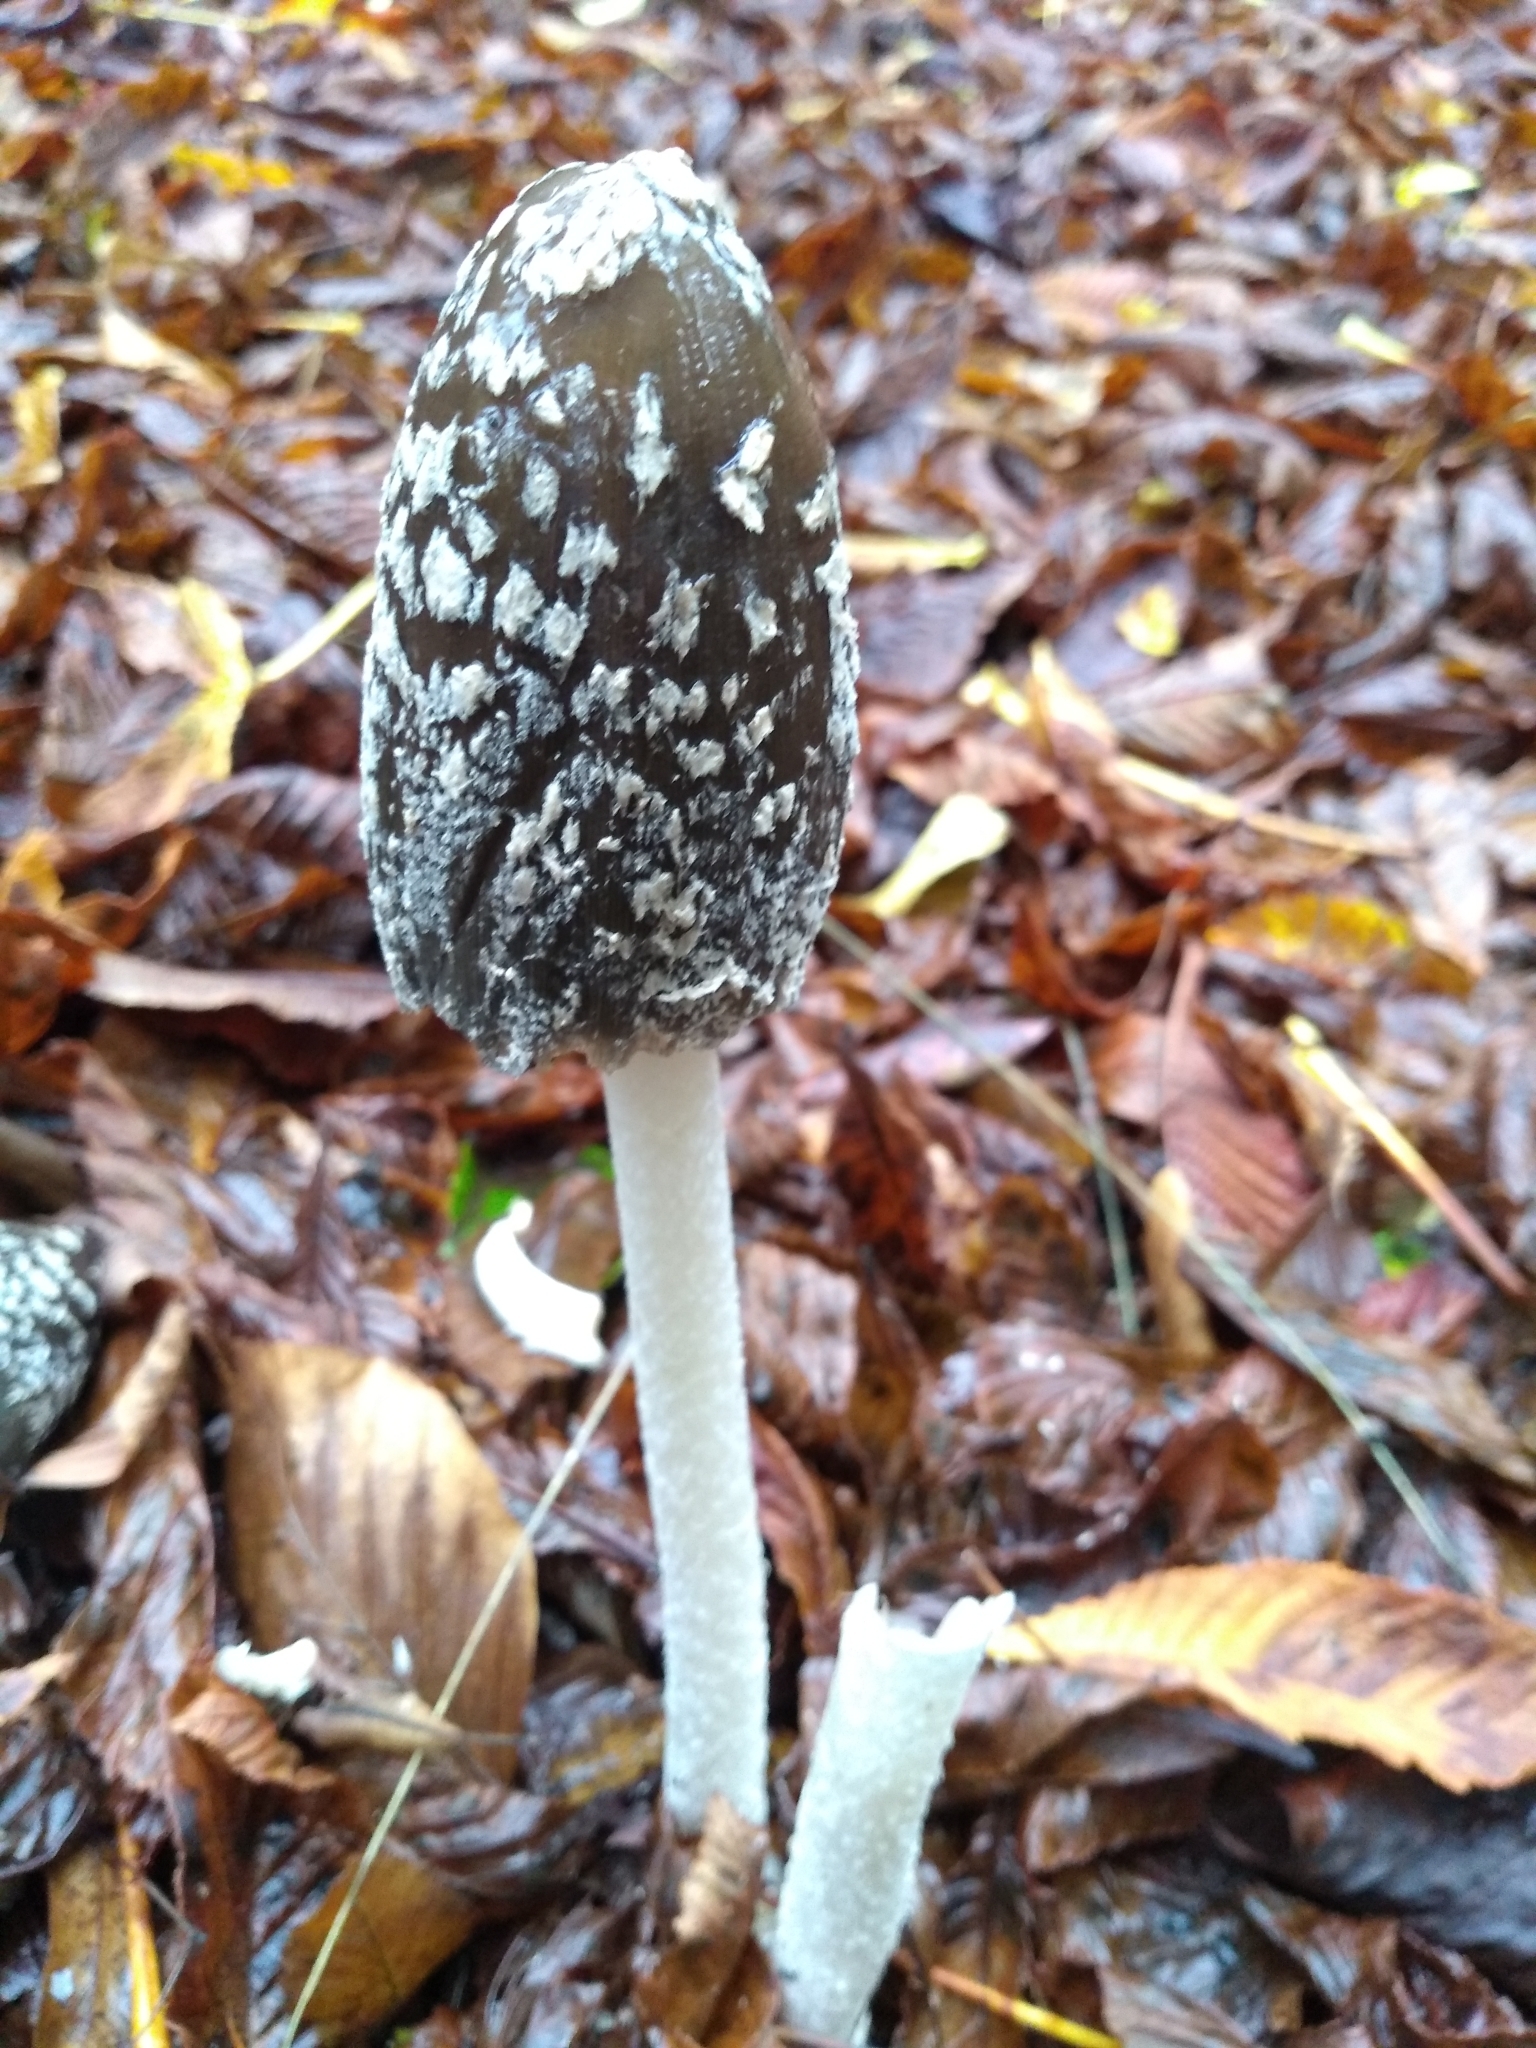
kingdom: Fungi
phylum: Basidiomycota
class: Agaricomycetes
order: Agaricales
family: Psathyrellaceae
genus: Coprinopsis
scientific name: Coprinopsis picacea
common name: Magpie inkcap
